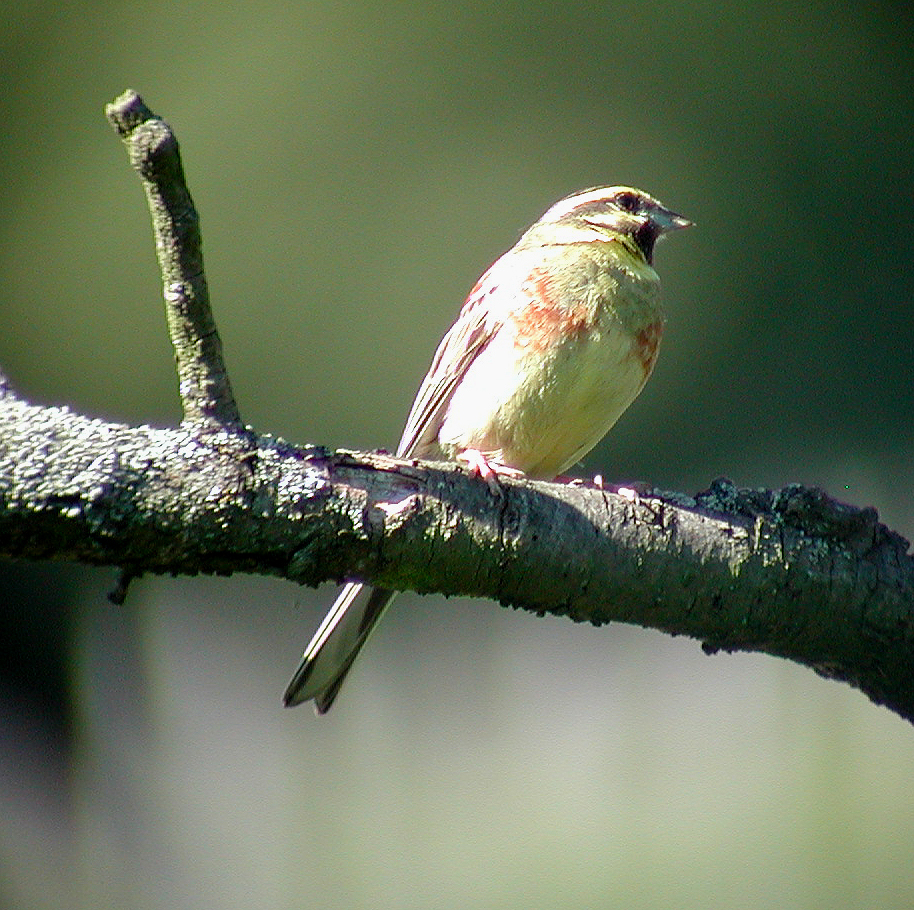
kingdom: Animalia
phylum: Chordata
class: Aves
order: Passeriformes
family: Emberizidae
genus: Emberiza
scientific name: Emberiza cirlus
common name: Cirl bunting
